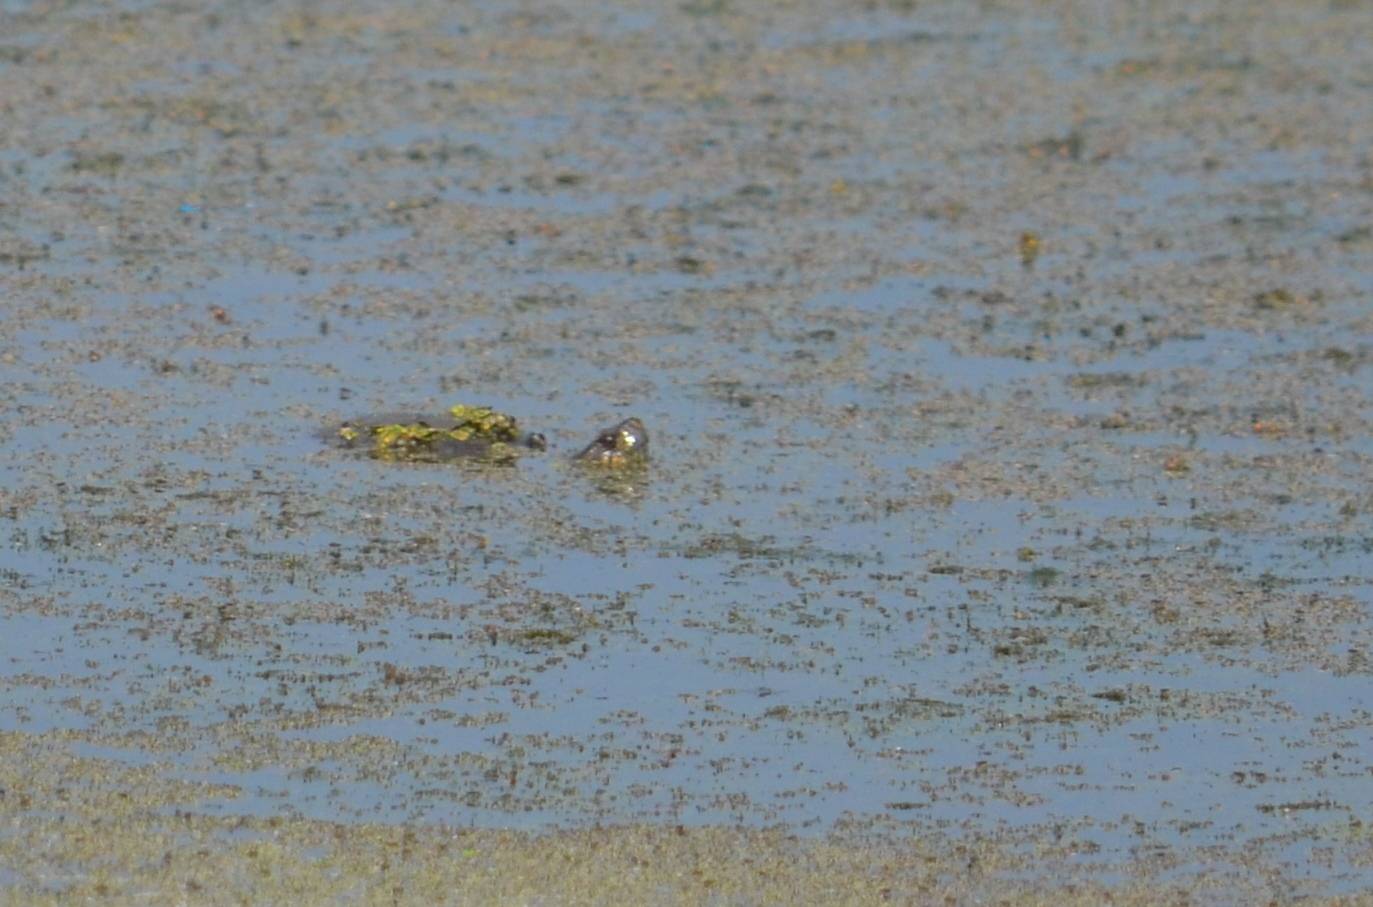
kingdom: Animalia
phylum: Chordata
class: Testudines
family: Emydidae
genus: Actinemys
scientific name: Actinemys marmorata
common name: Western pond turtle
